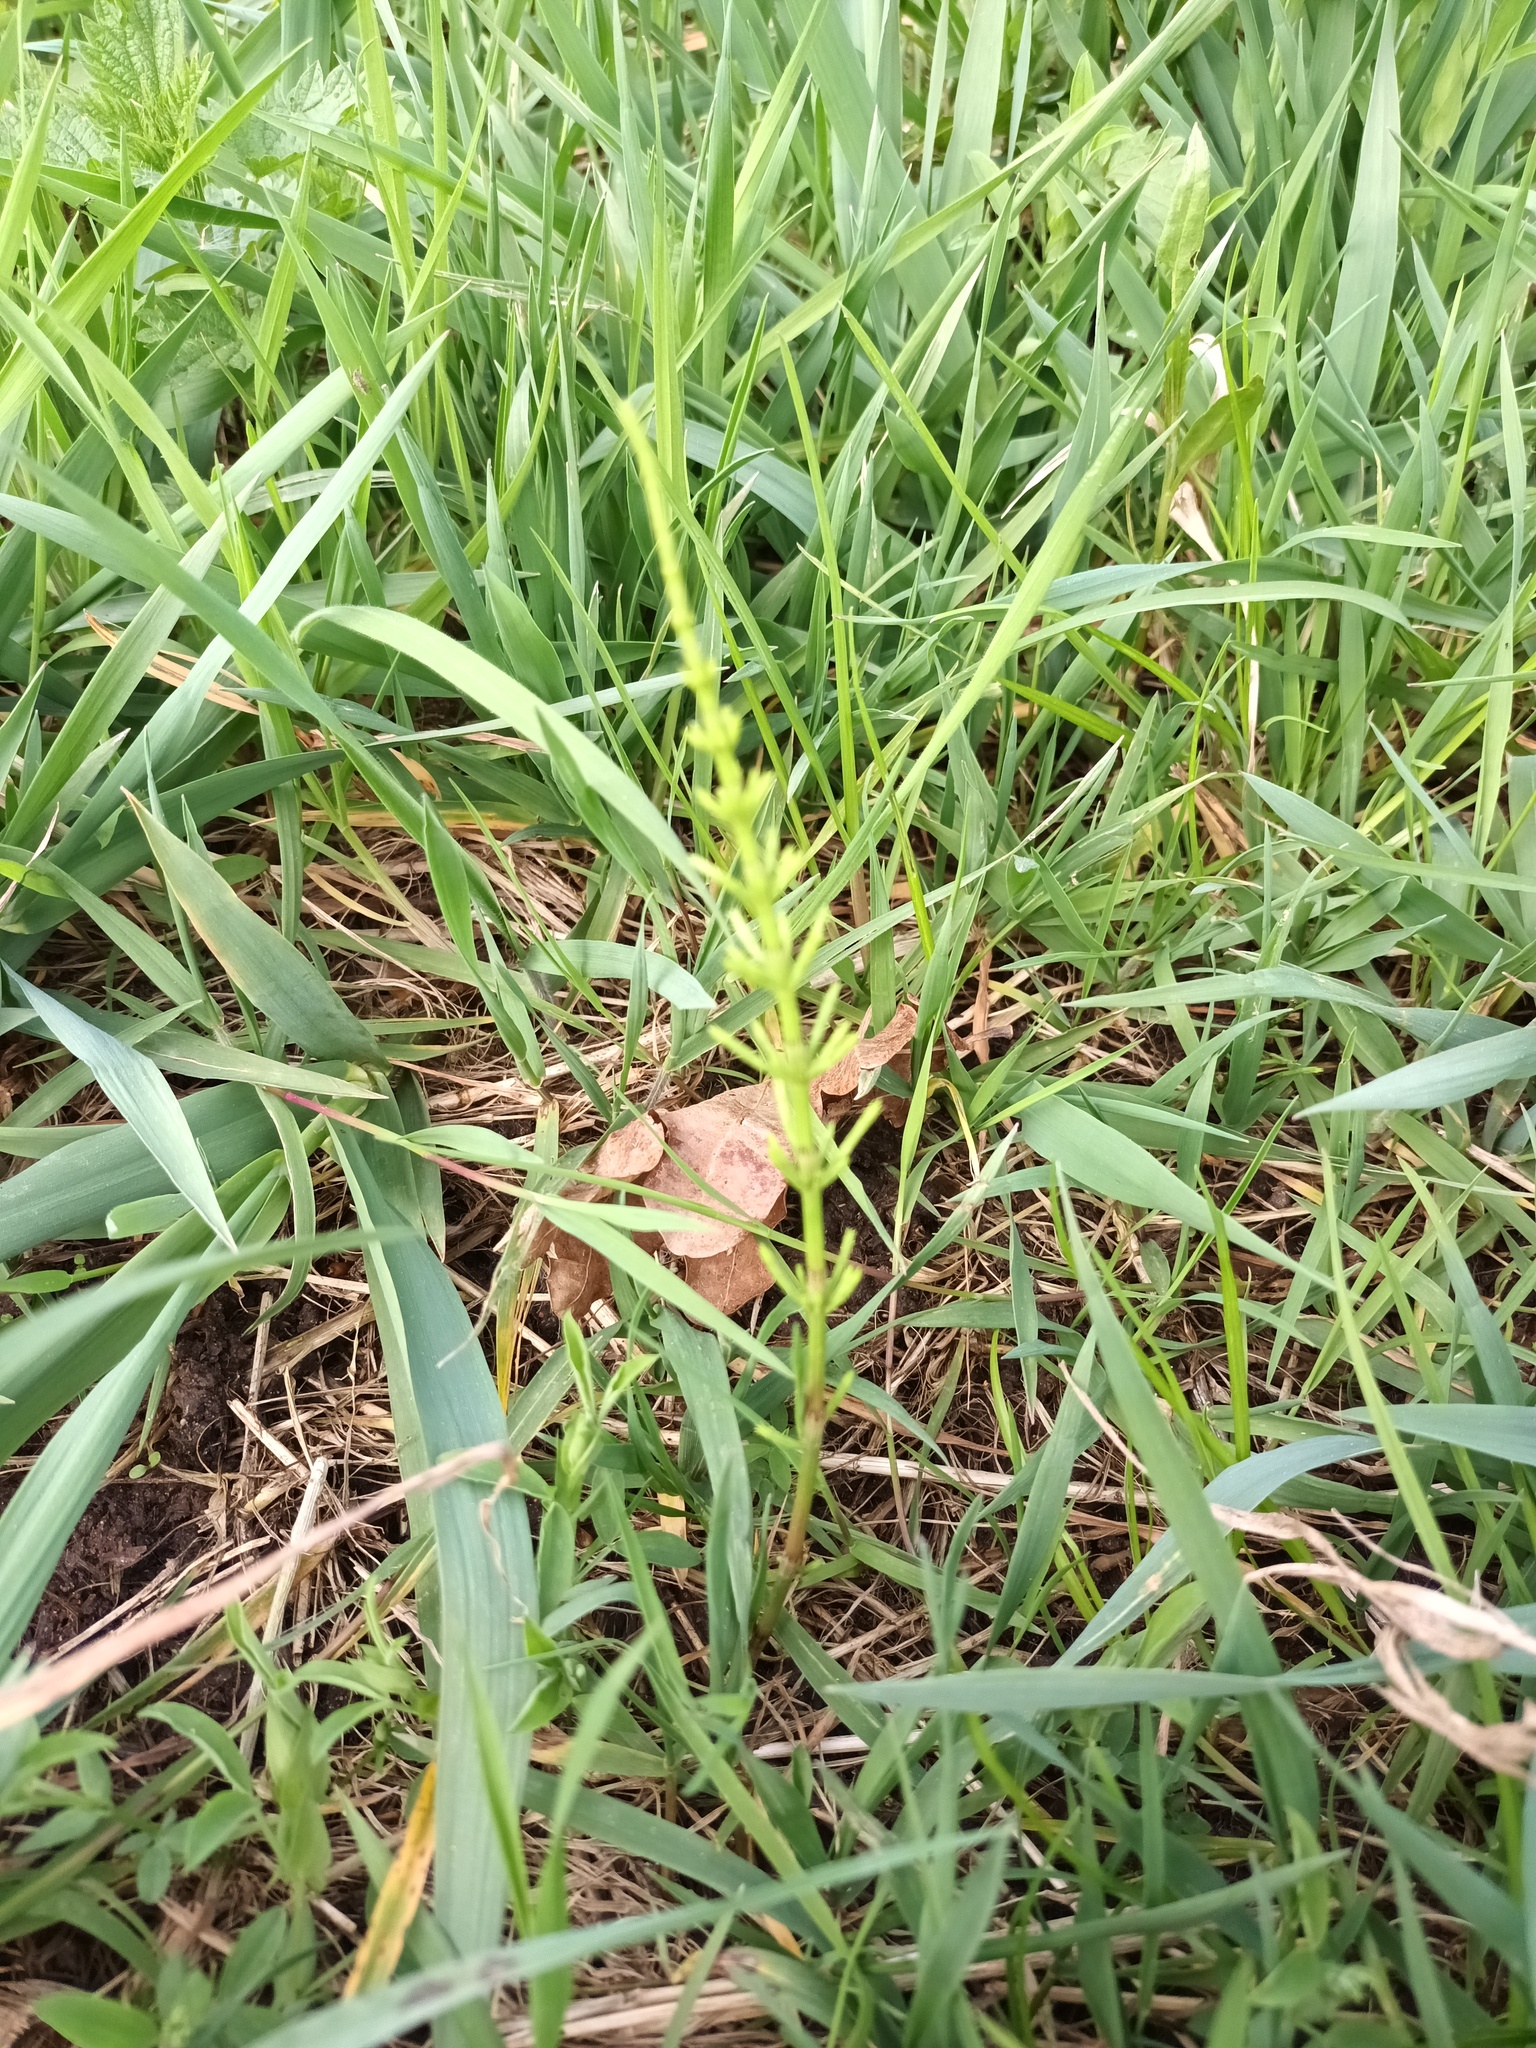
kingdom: Plantae
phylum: Tracheophyta
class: Polypodiopsida
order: Equisetales
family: Equisetaceae
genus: Equisetum
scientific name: Equisetum arvense
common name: Field horsetail
